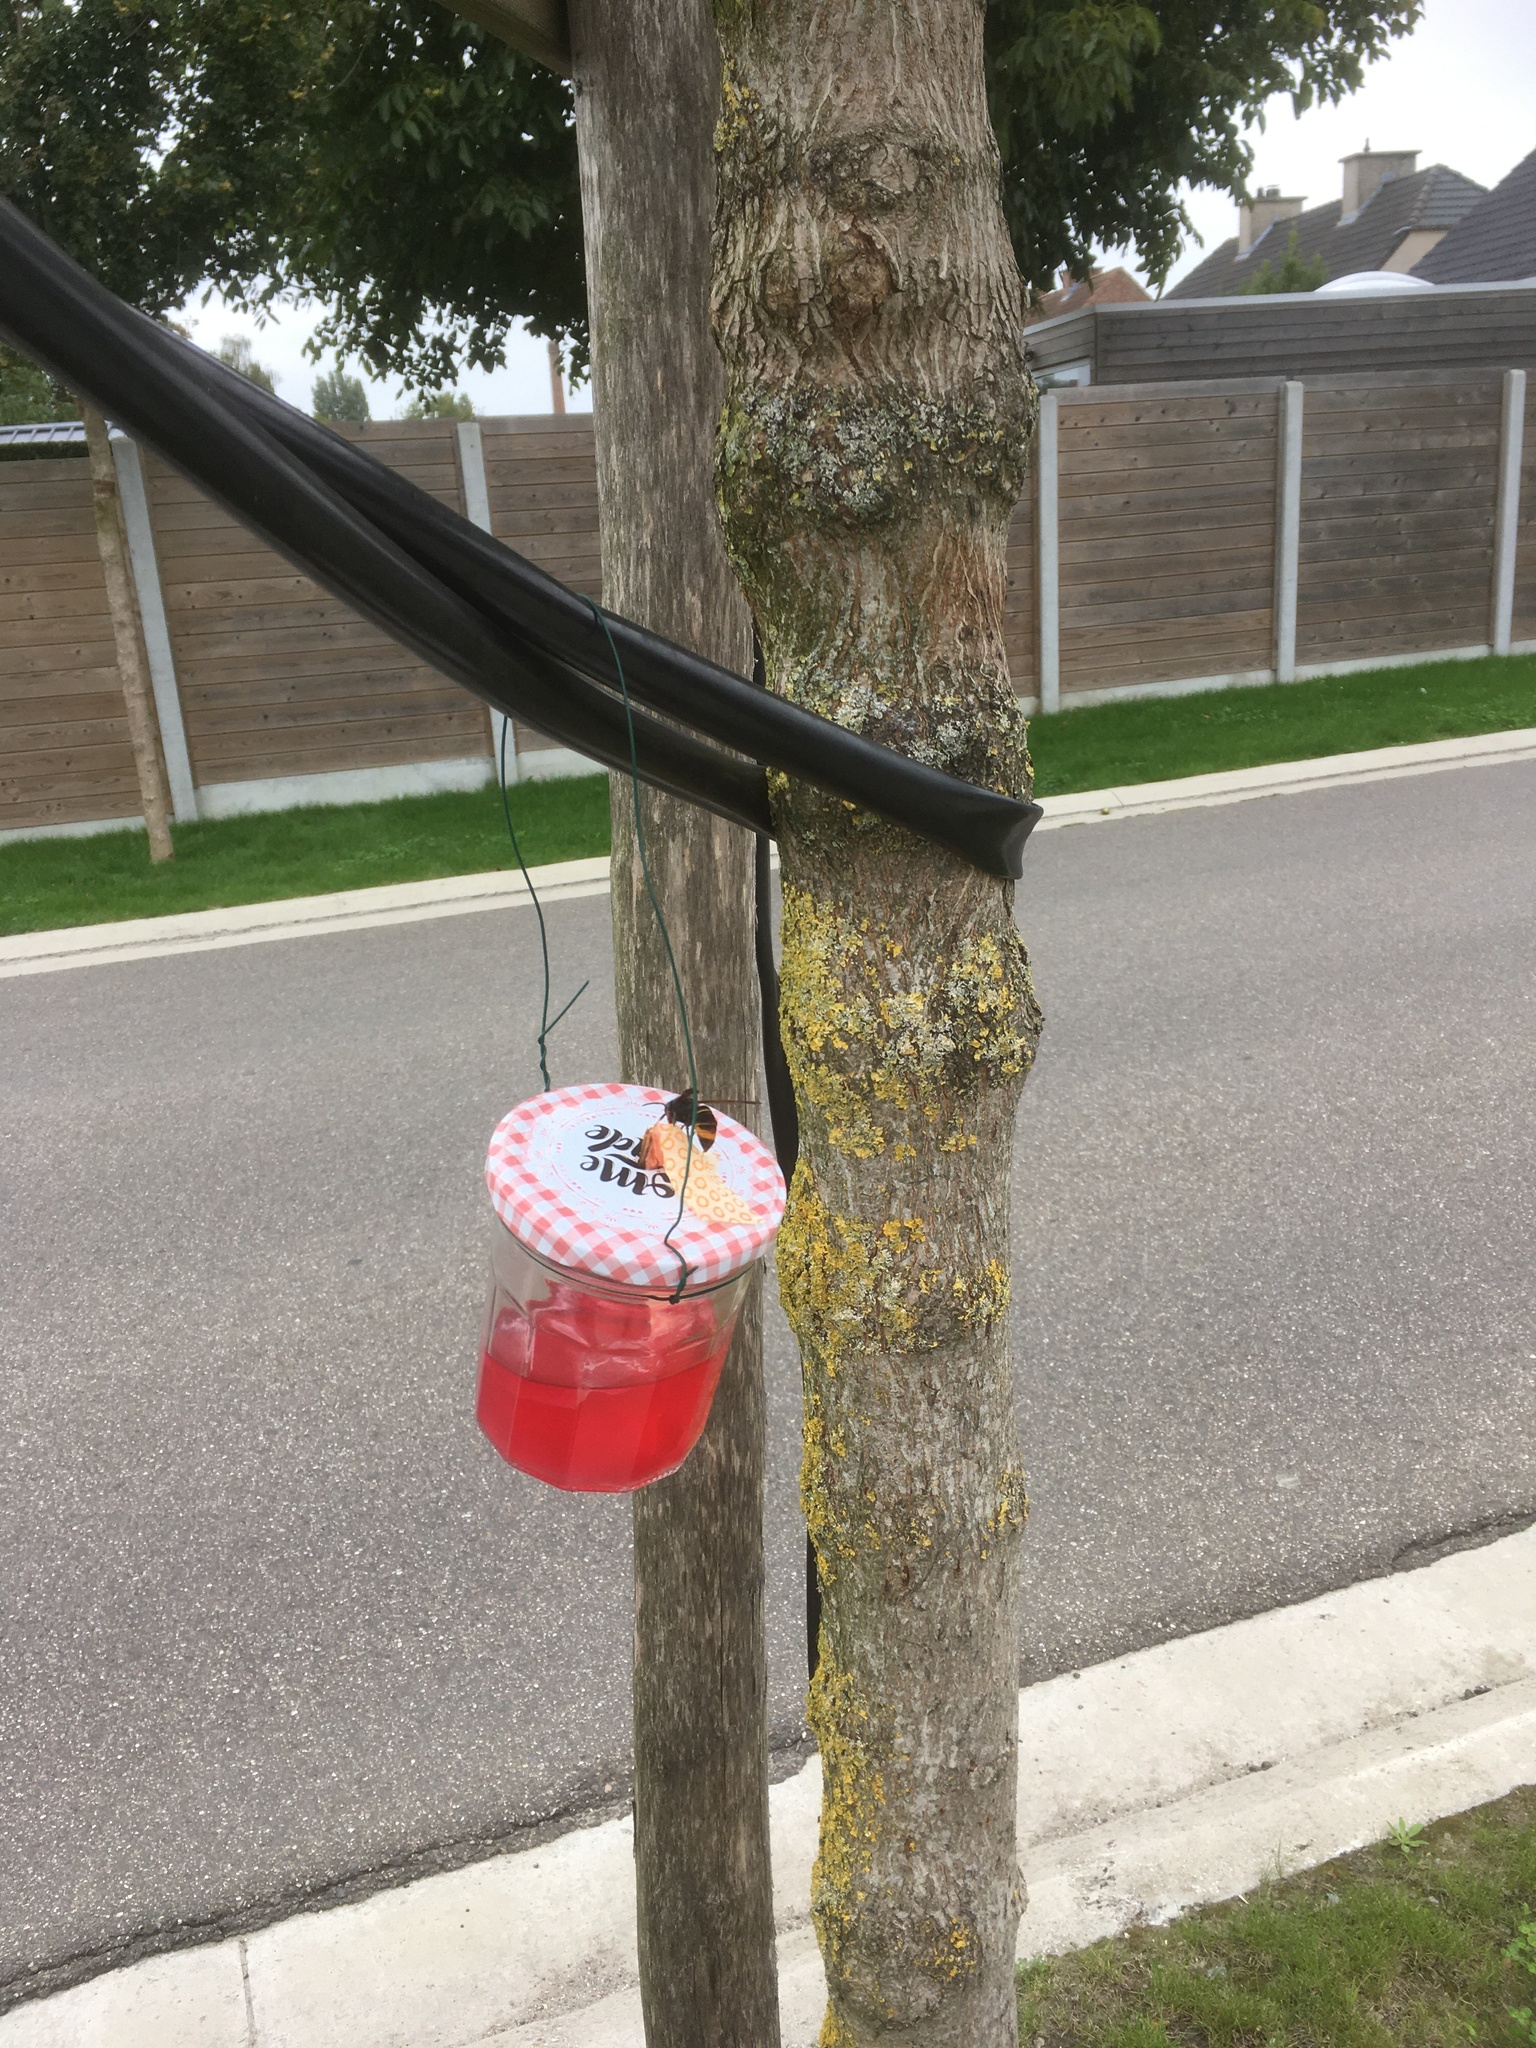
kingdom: Animalia
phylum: Arthropoda
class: Insecta
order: Hymenoptera
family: Vespidae
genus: Vespa
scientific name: Vespa velutina
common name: Asian hornet
